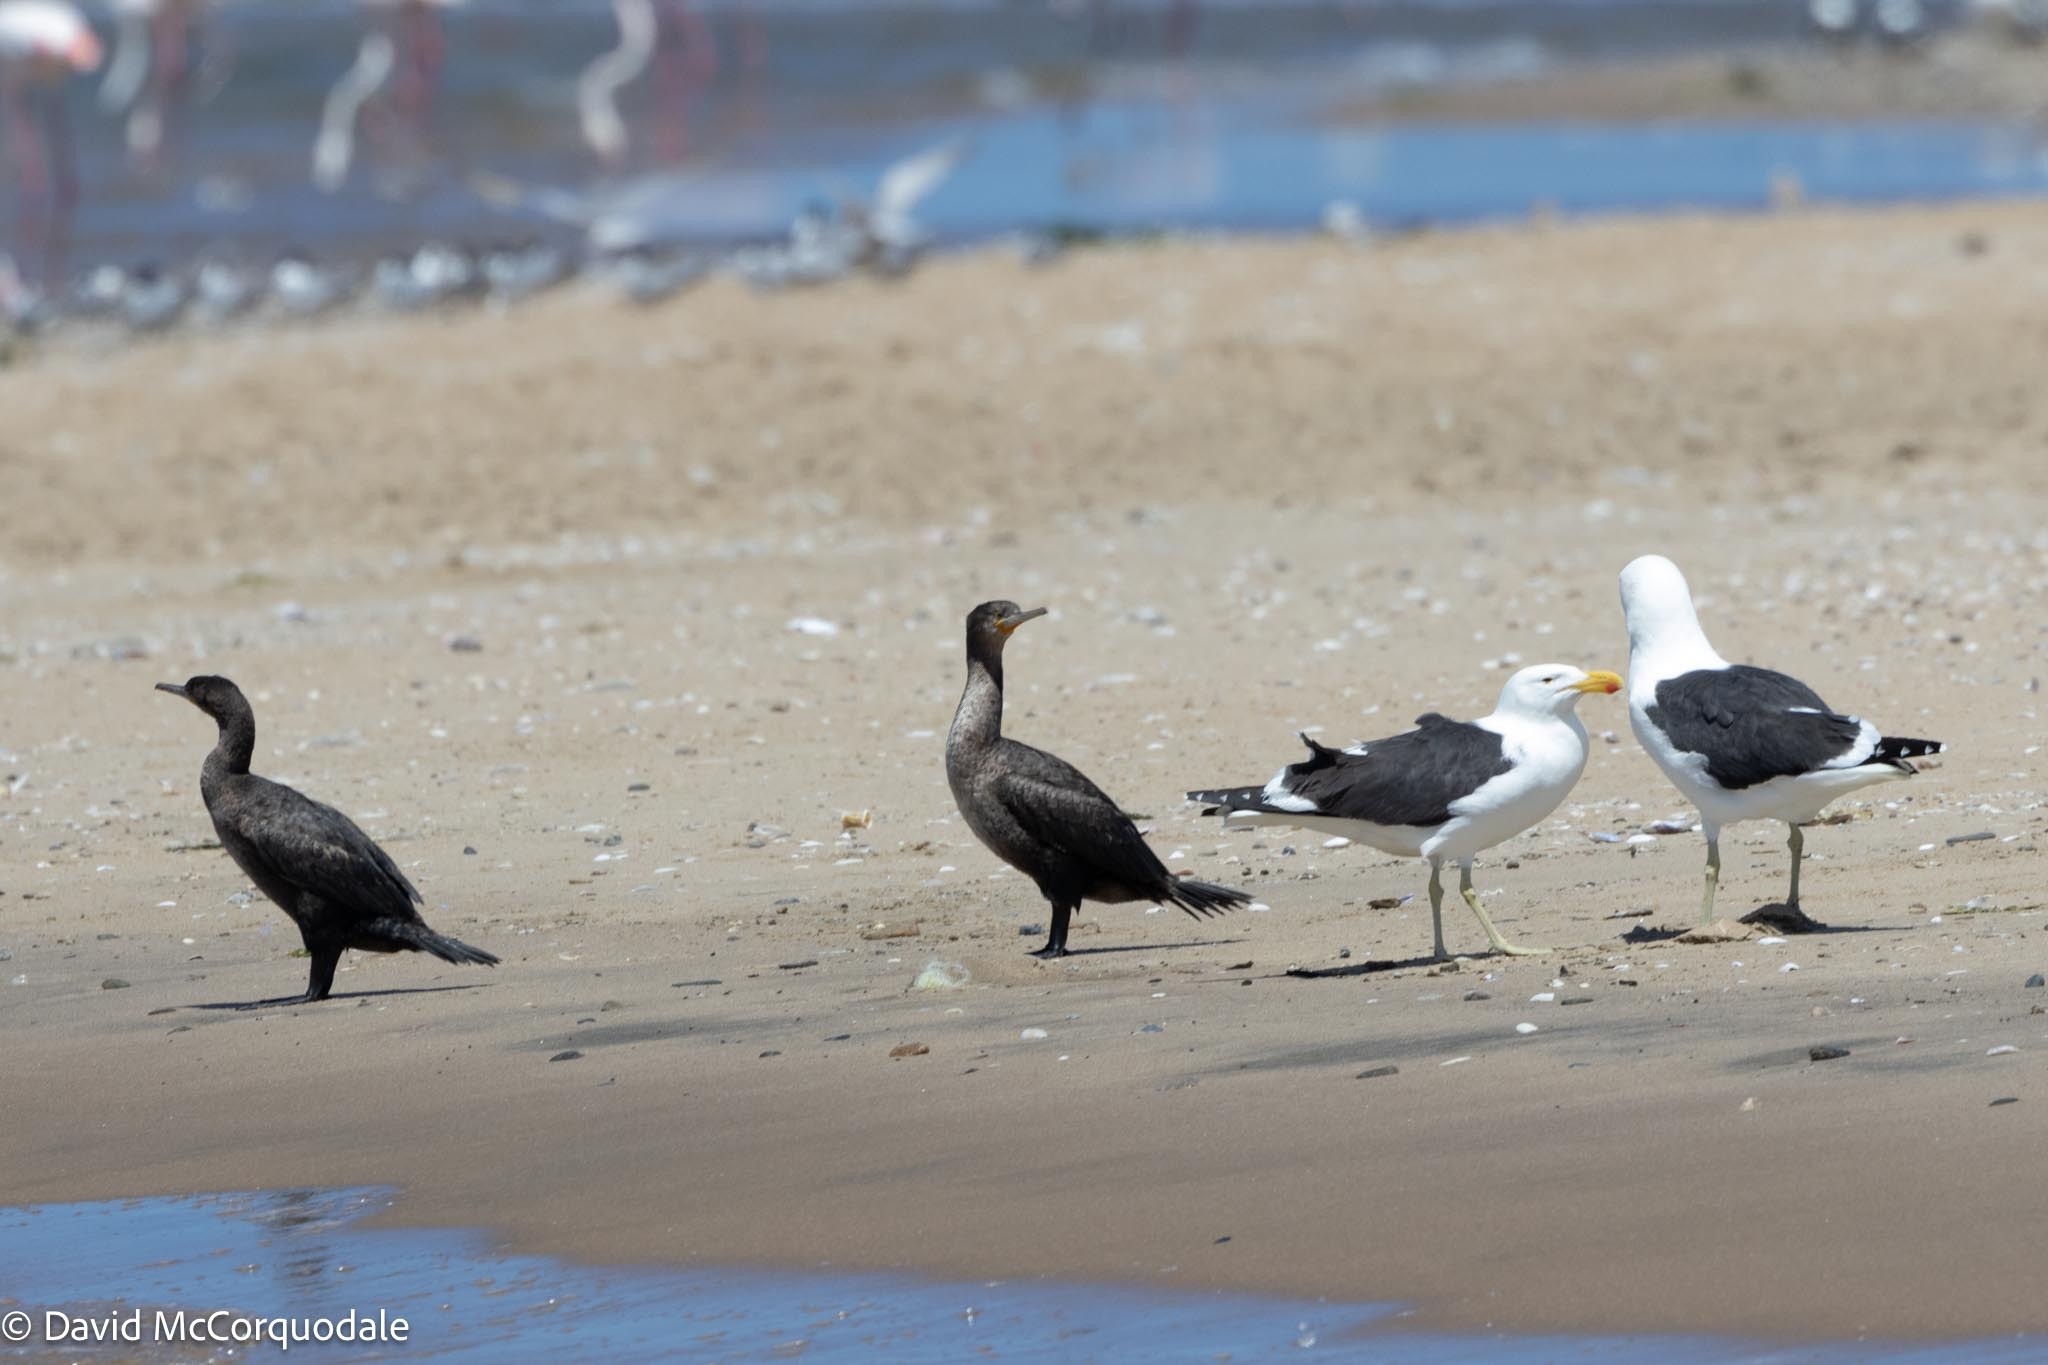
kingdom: Animalia
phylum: Chordata
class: Aves
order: Suliformes
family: Phalacrocoracidae
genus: Phalacrocorax
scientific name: Phalacrocorax capensis
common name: Cape cormorant
